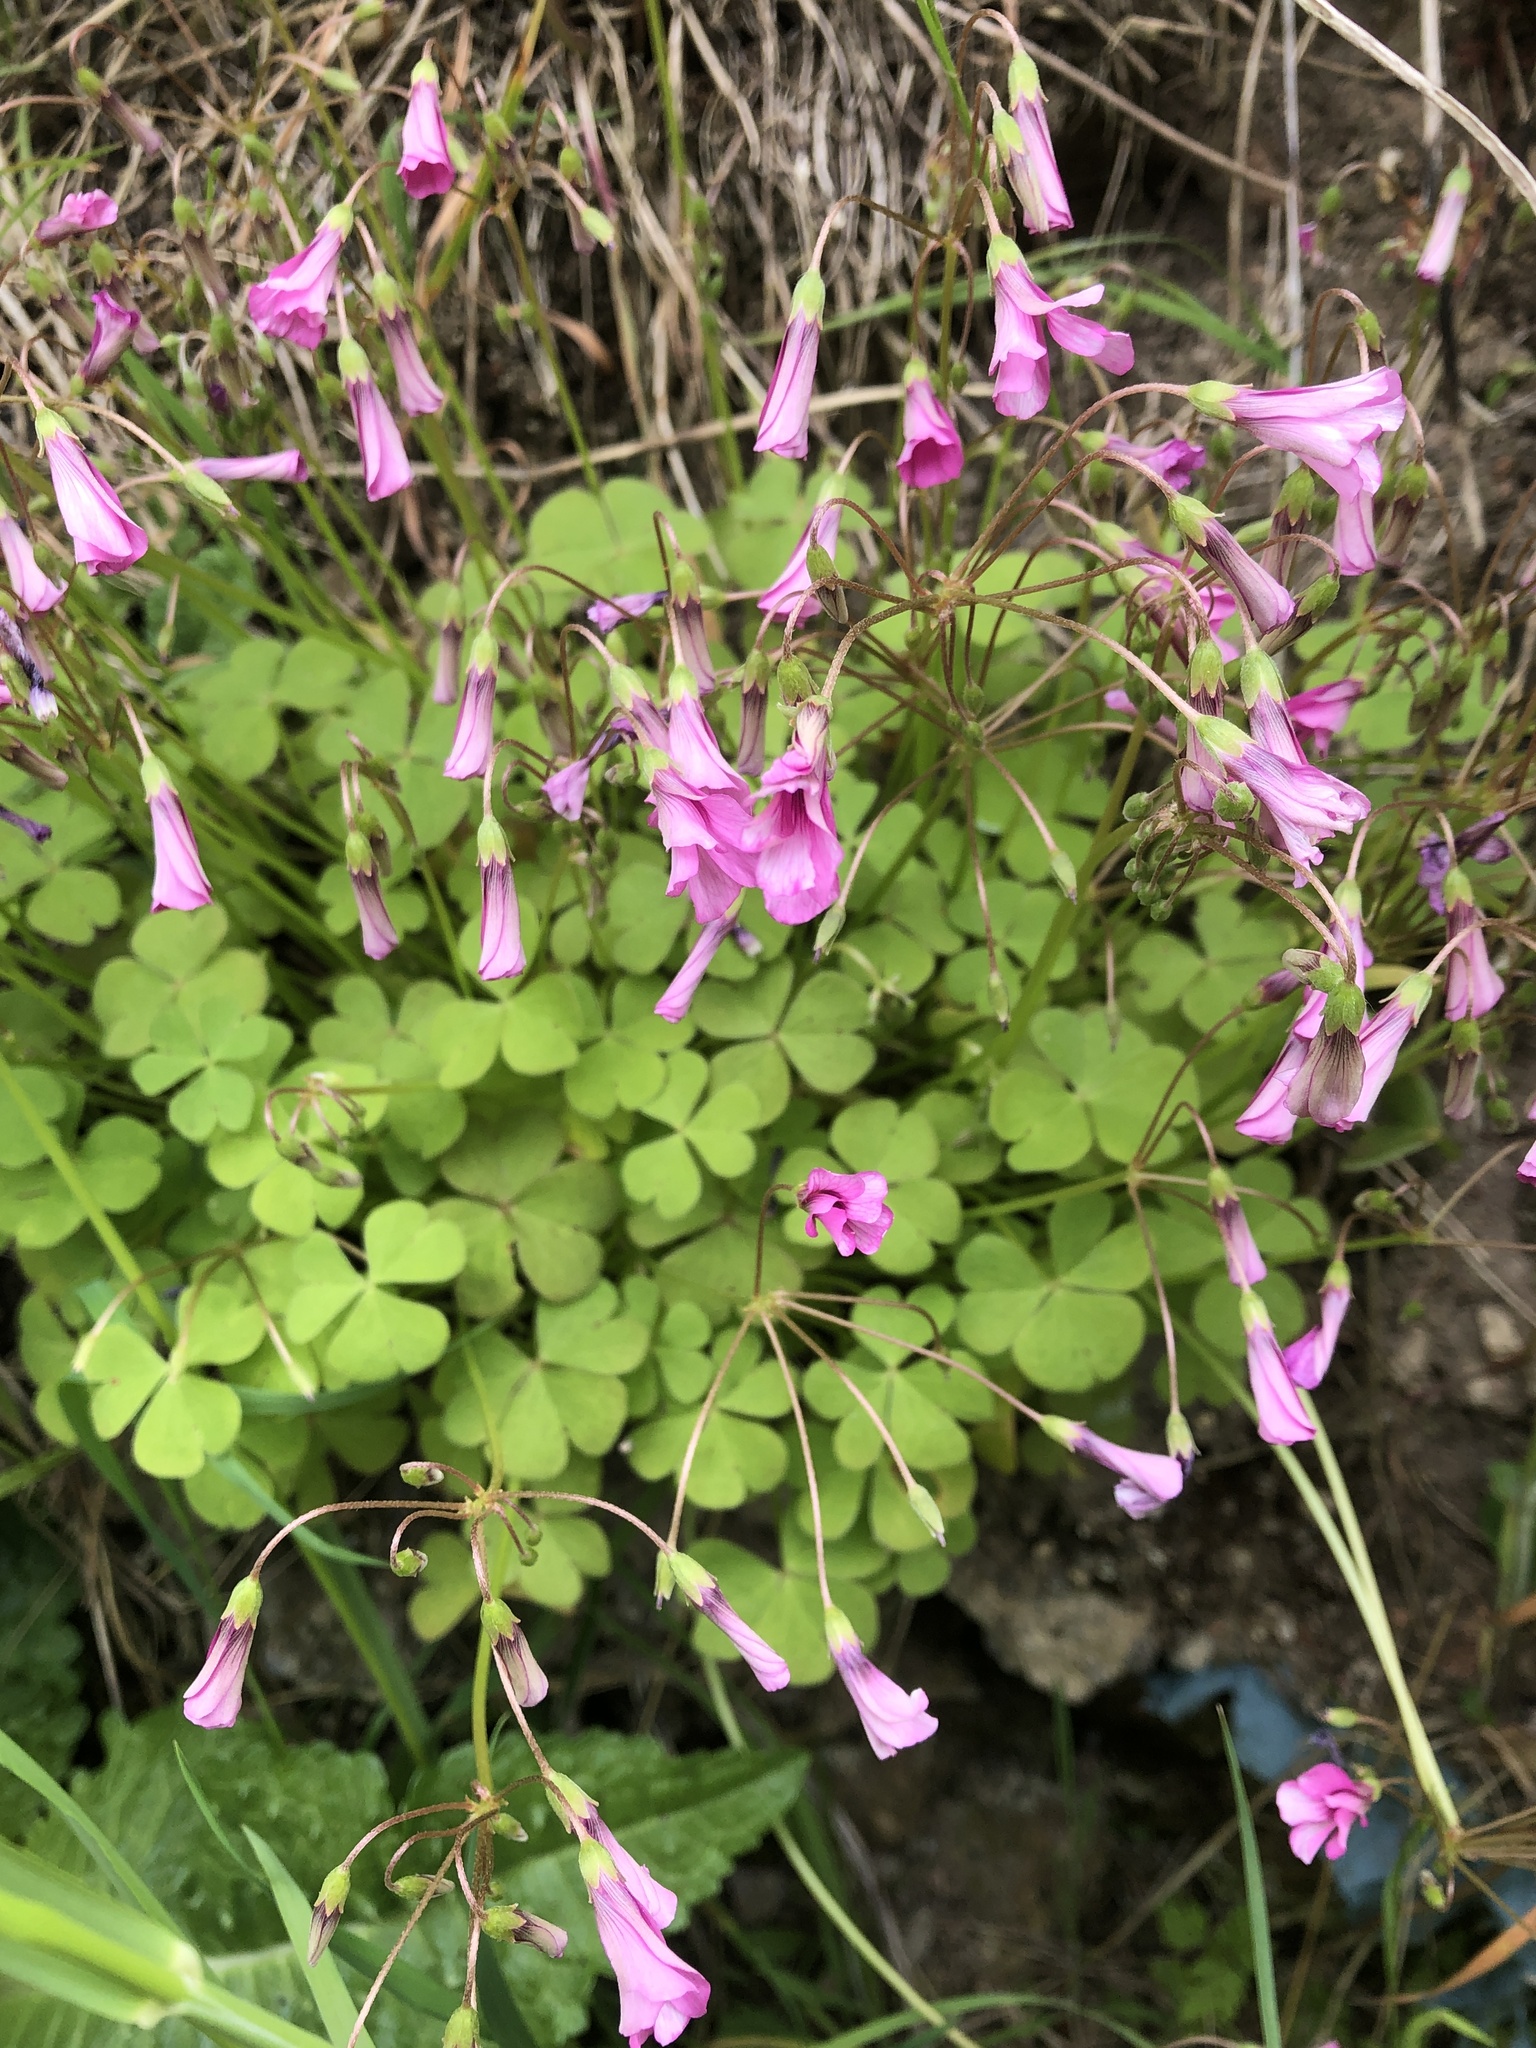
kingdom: Plantae
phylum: Tracheophyta
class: Magnoliopsida
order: Oxalidales
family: Oxalidaceae
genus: Oxalis
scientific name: Oxalis articulata
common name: Pink-sorrel
